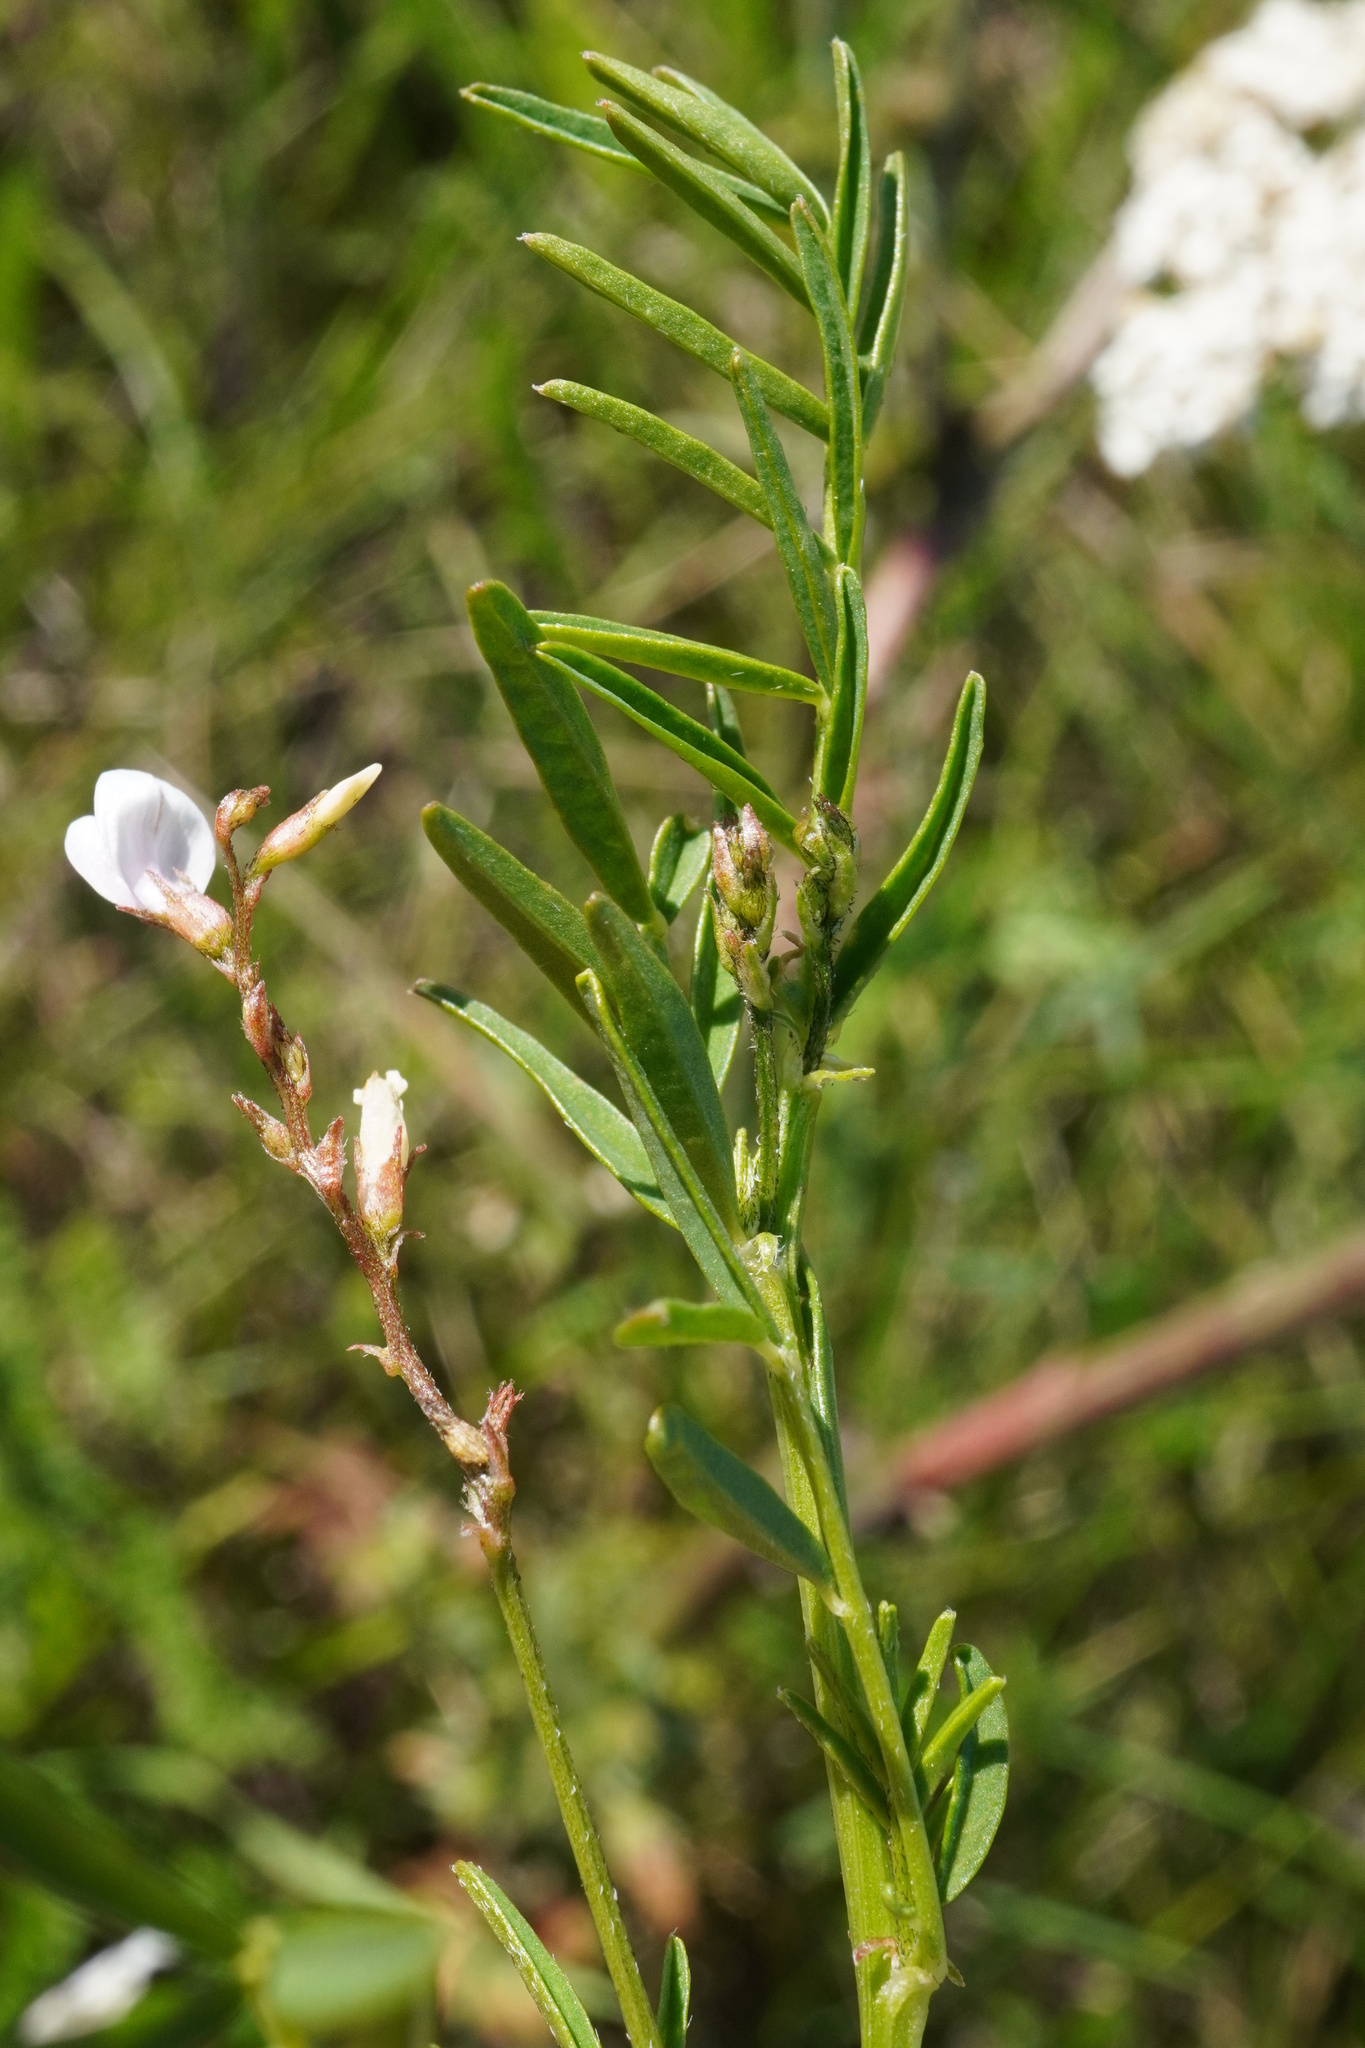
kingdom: Plantae
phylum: Tracheophyta
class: Magnoliopsida
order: Fabales
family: Fabaceae
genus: Astragalus
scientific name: Astragalus sulcatus
